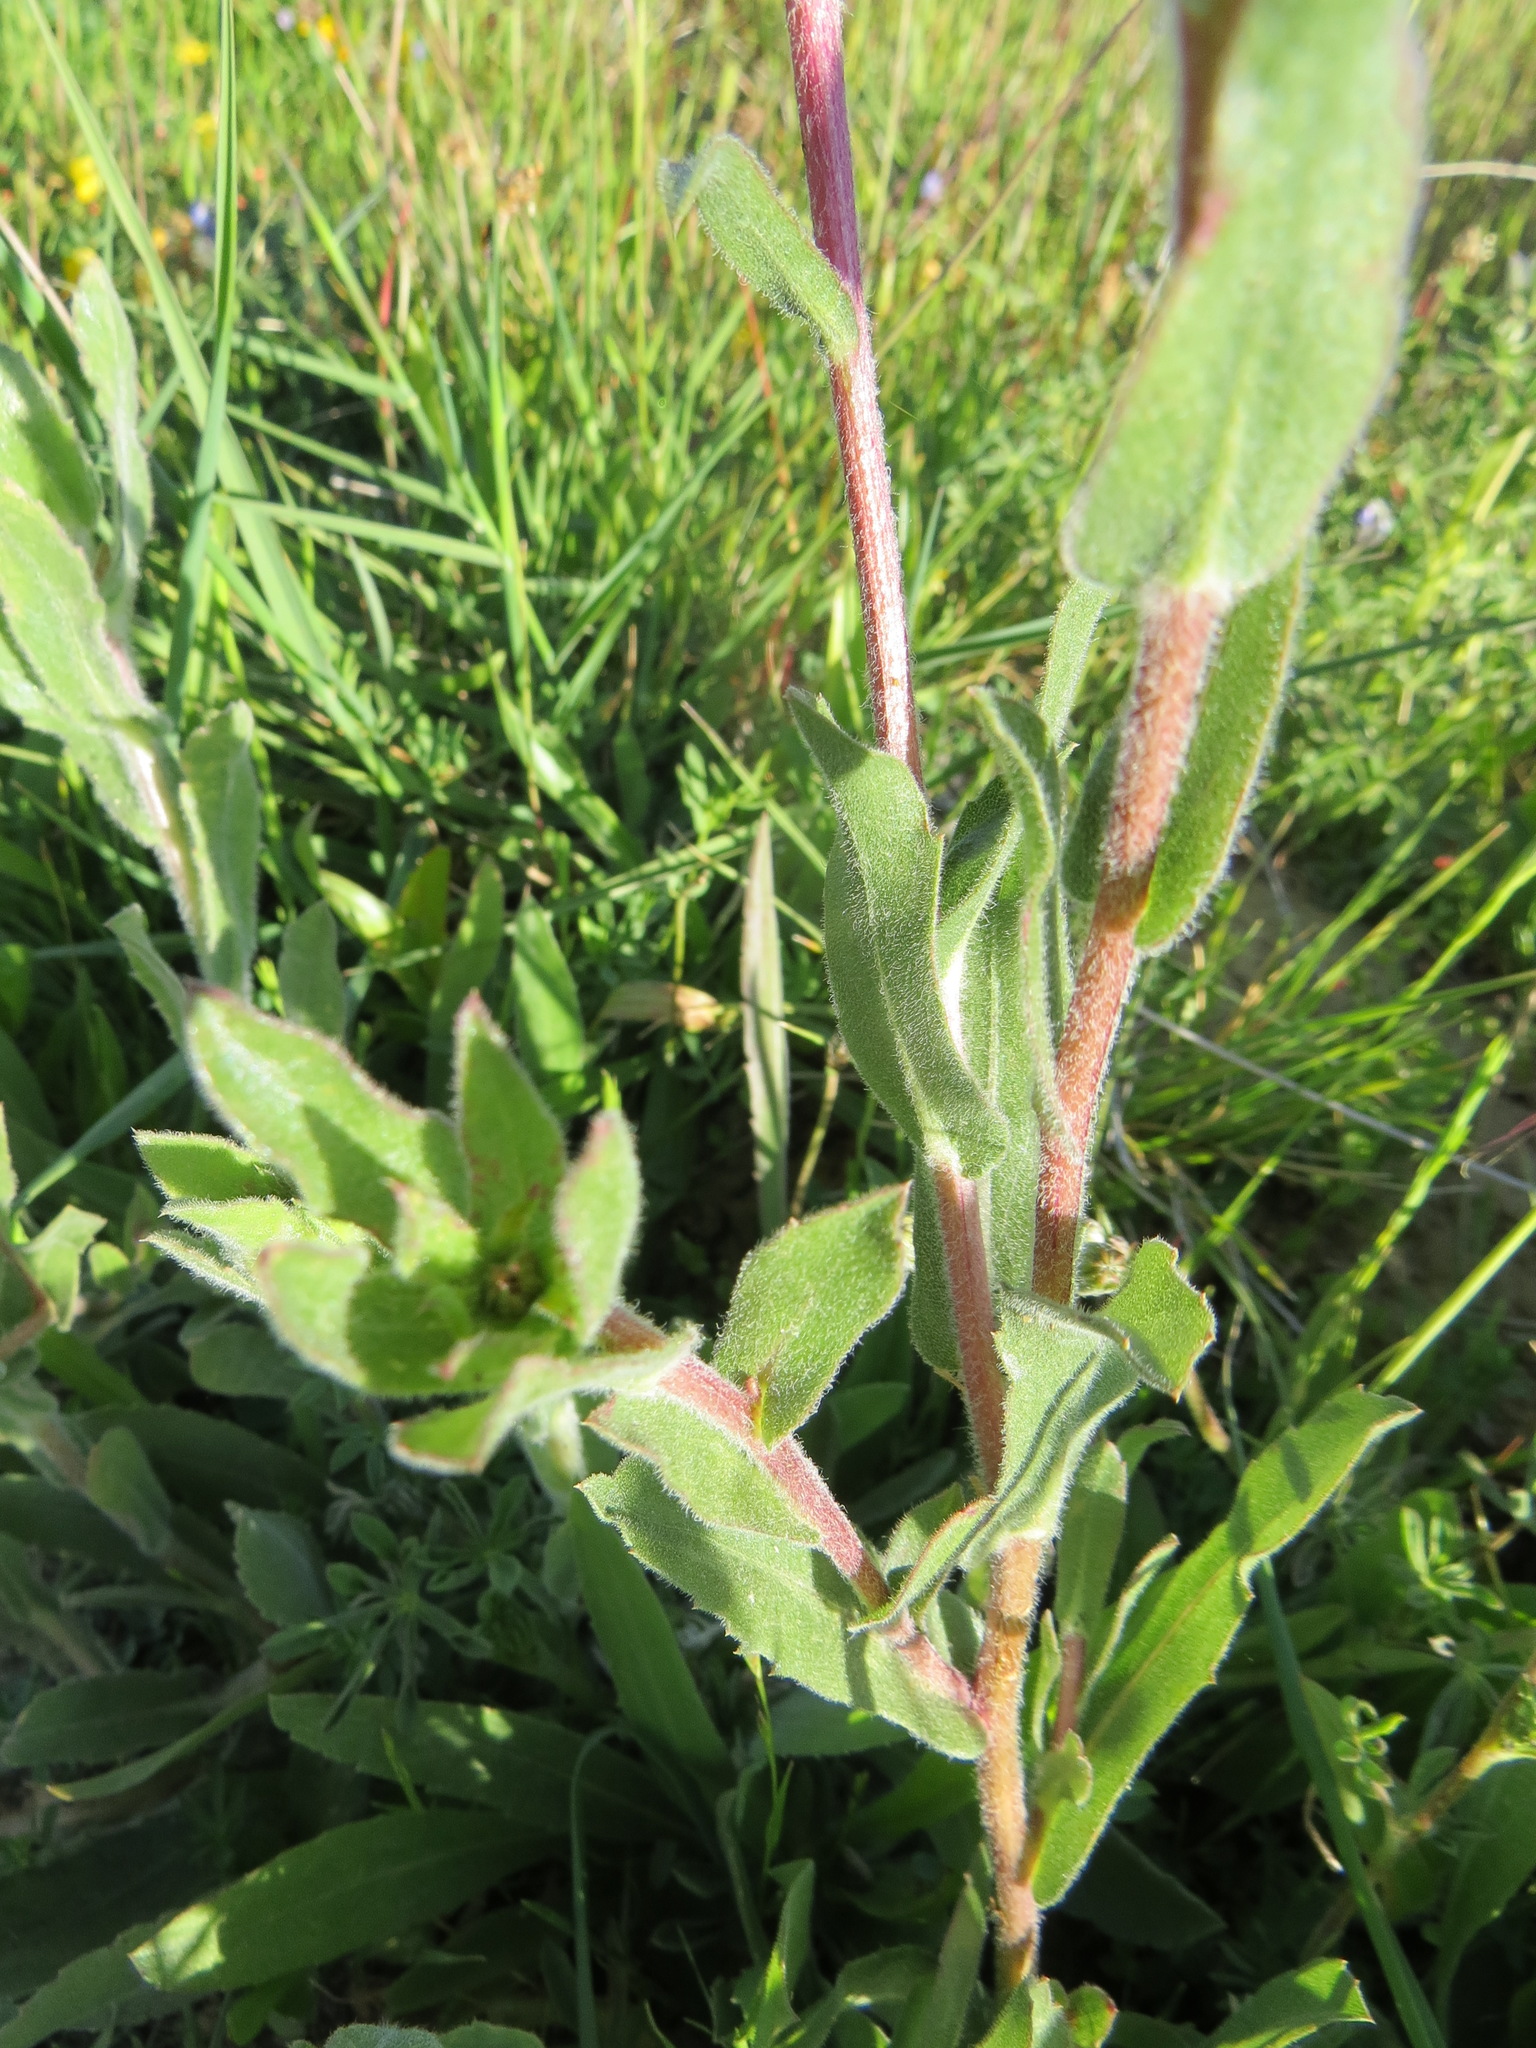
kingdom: Plantae
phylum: Tracheophyta
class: Magnoliopsida
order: Asterales
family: Asteraceae
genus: Grindelia
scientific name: Grindelia hirsutula
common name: Hairy gumweed
